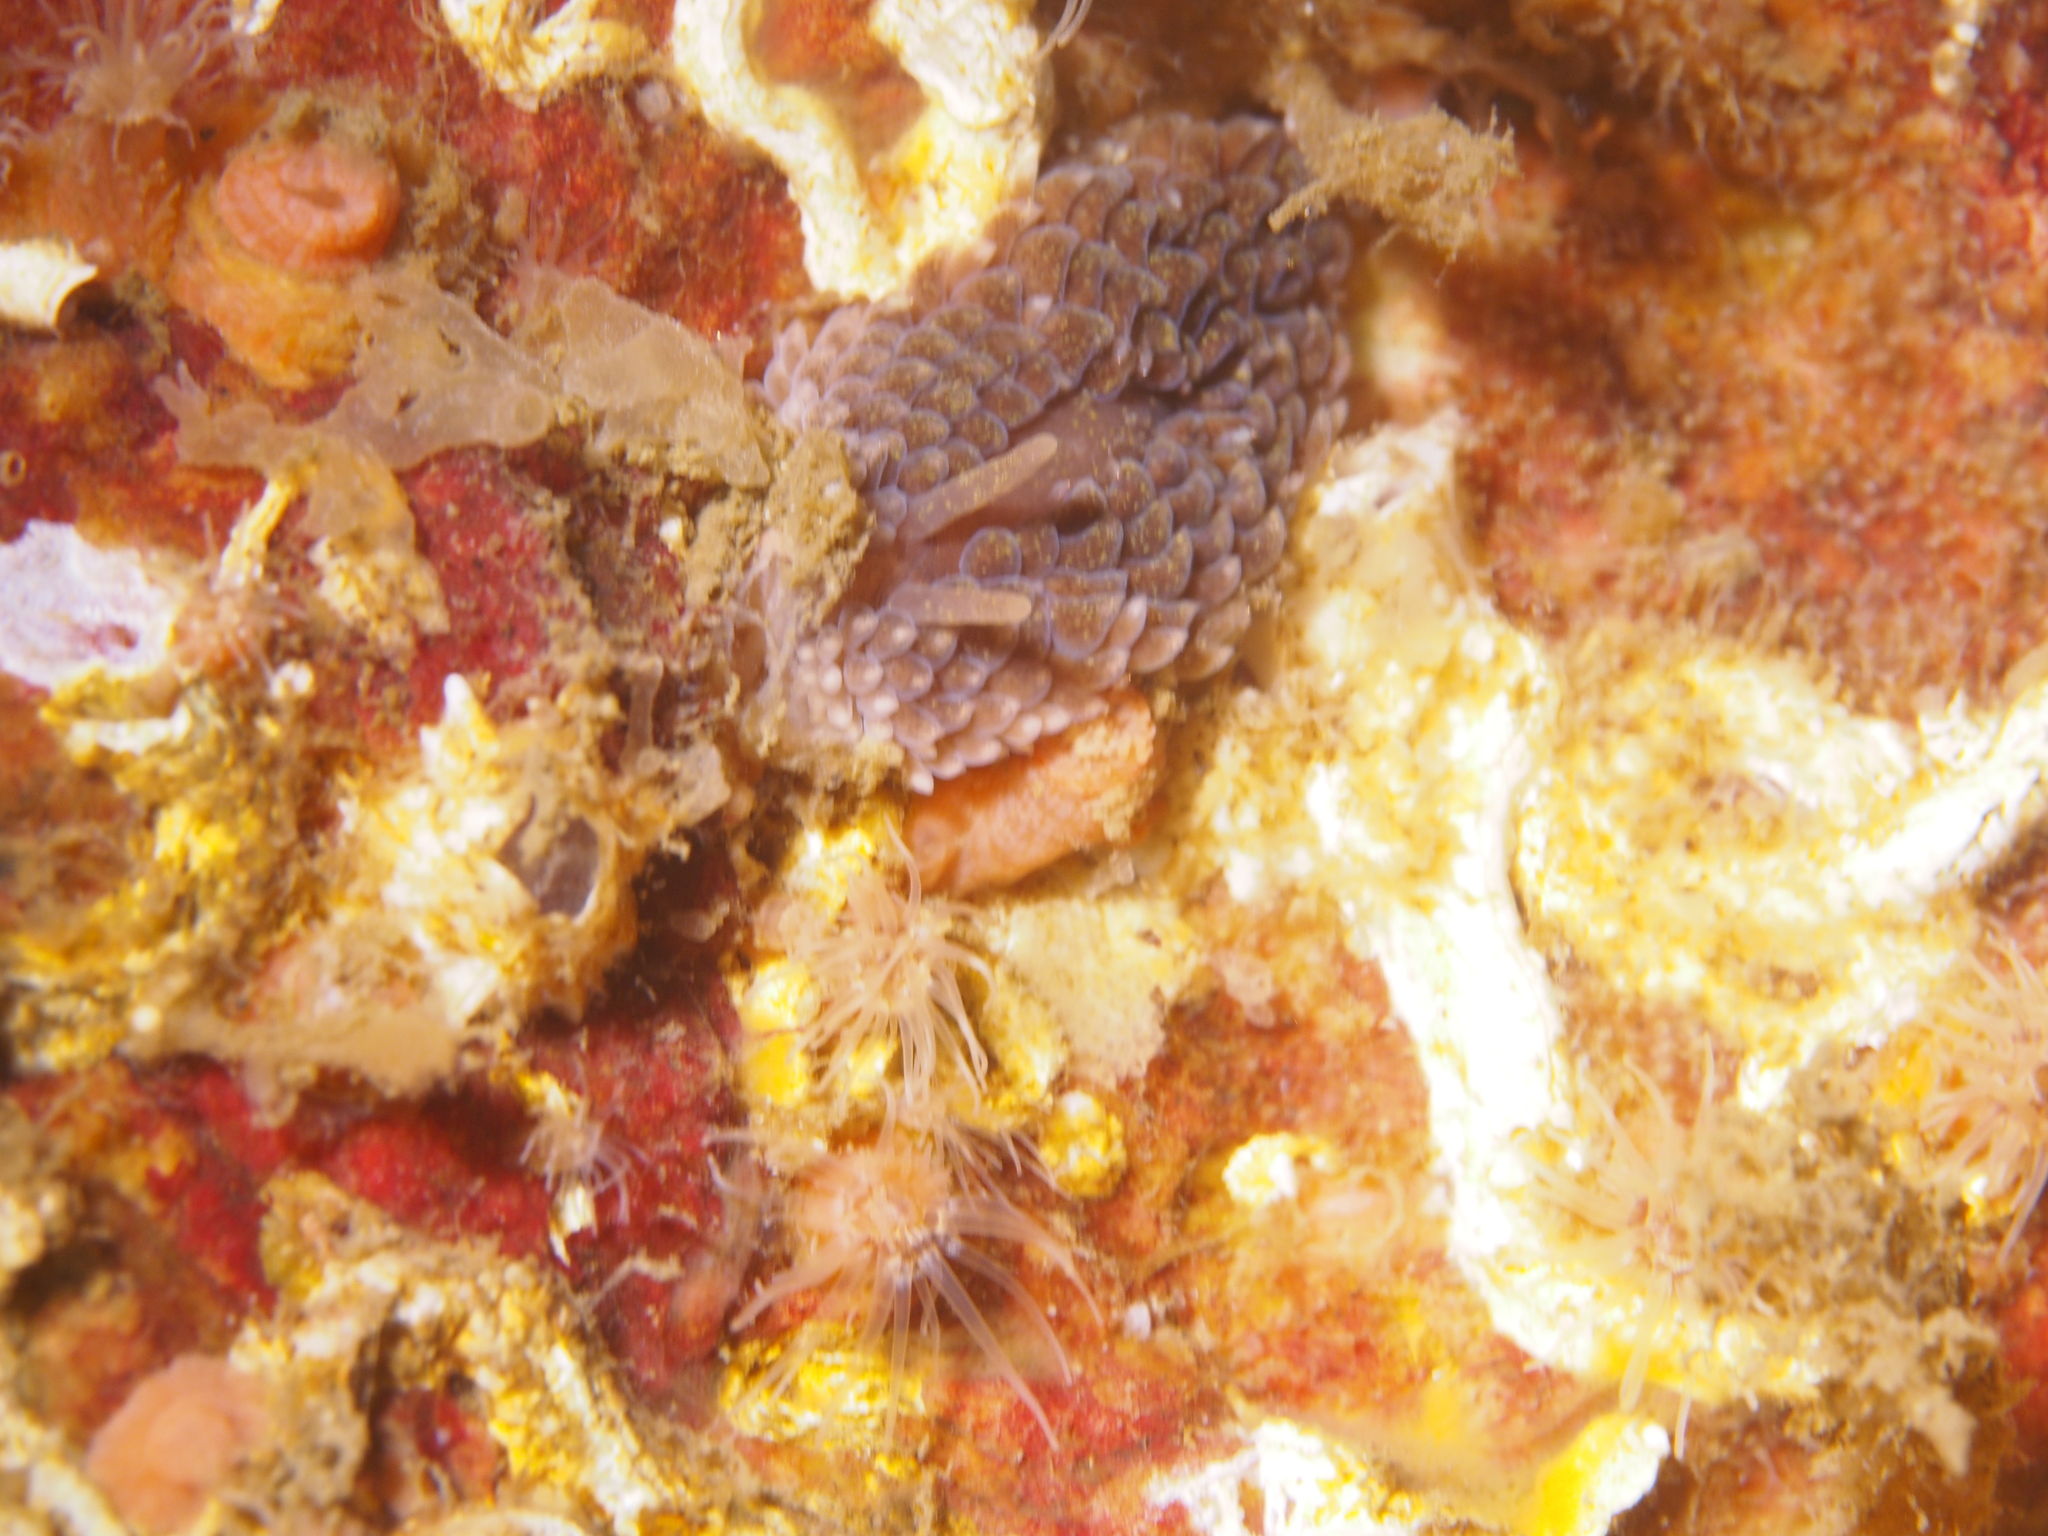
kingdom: Animalia
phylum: Mollusca
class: Gastropoda
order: Nudibranchia
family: Aeolidiidae
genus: Aeolidia
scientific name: Aeolidia papillosa
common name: Common grey sea slug
